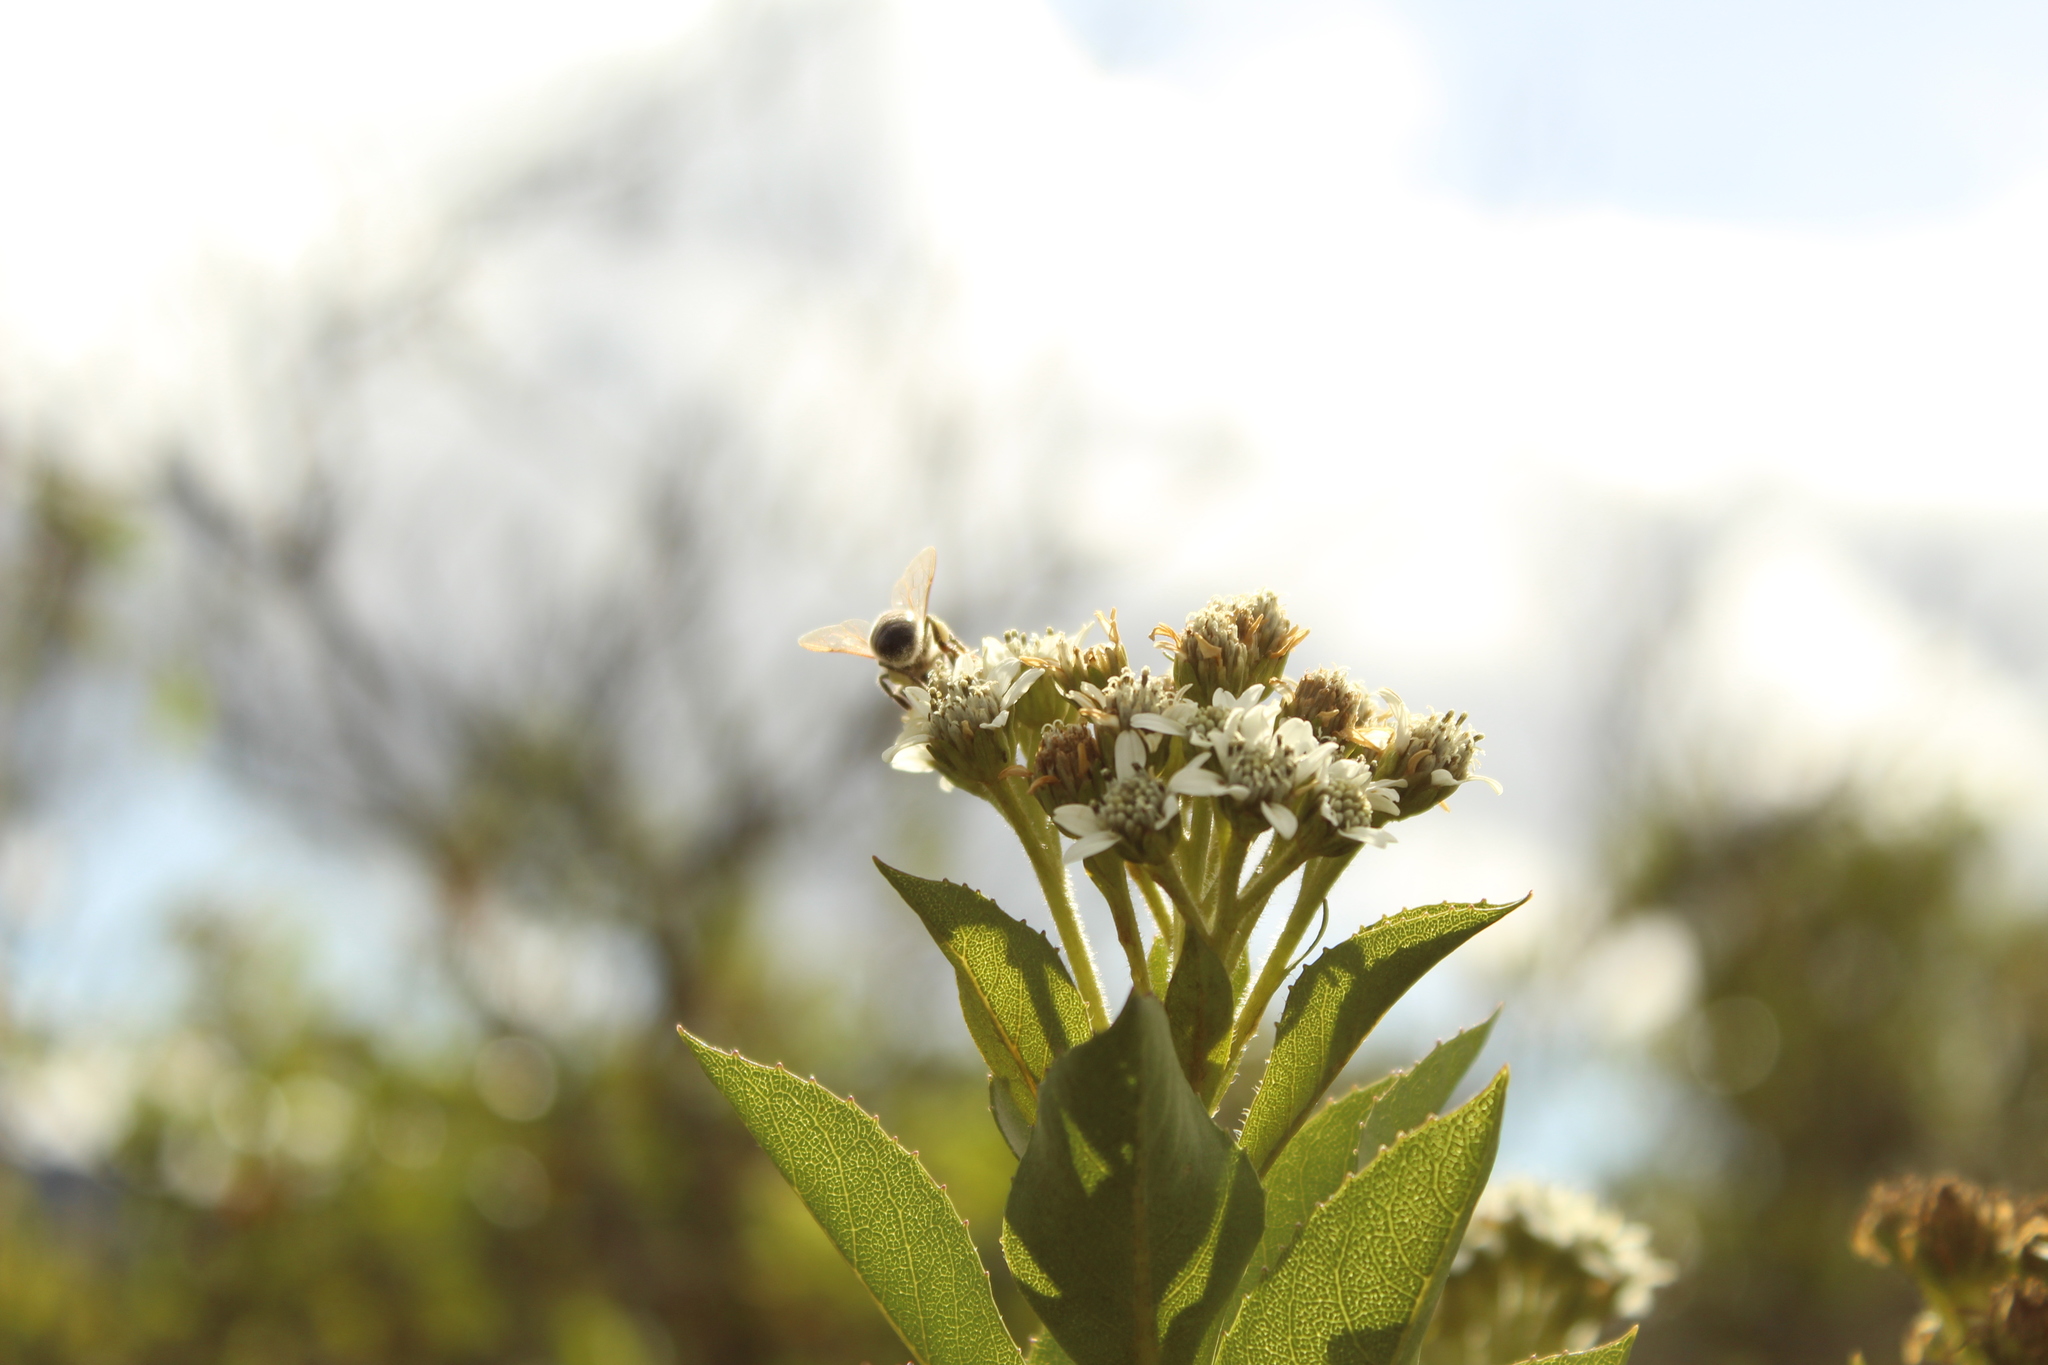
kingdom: Plantae
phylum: Tracheophyta
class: Magnoliopsida
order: Asterales
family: Asteraceae
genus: Verbesina
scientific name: Verbesina centroboyacana
